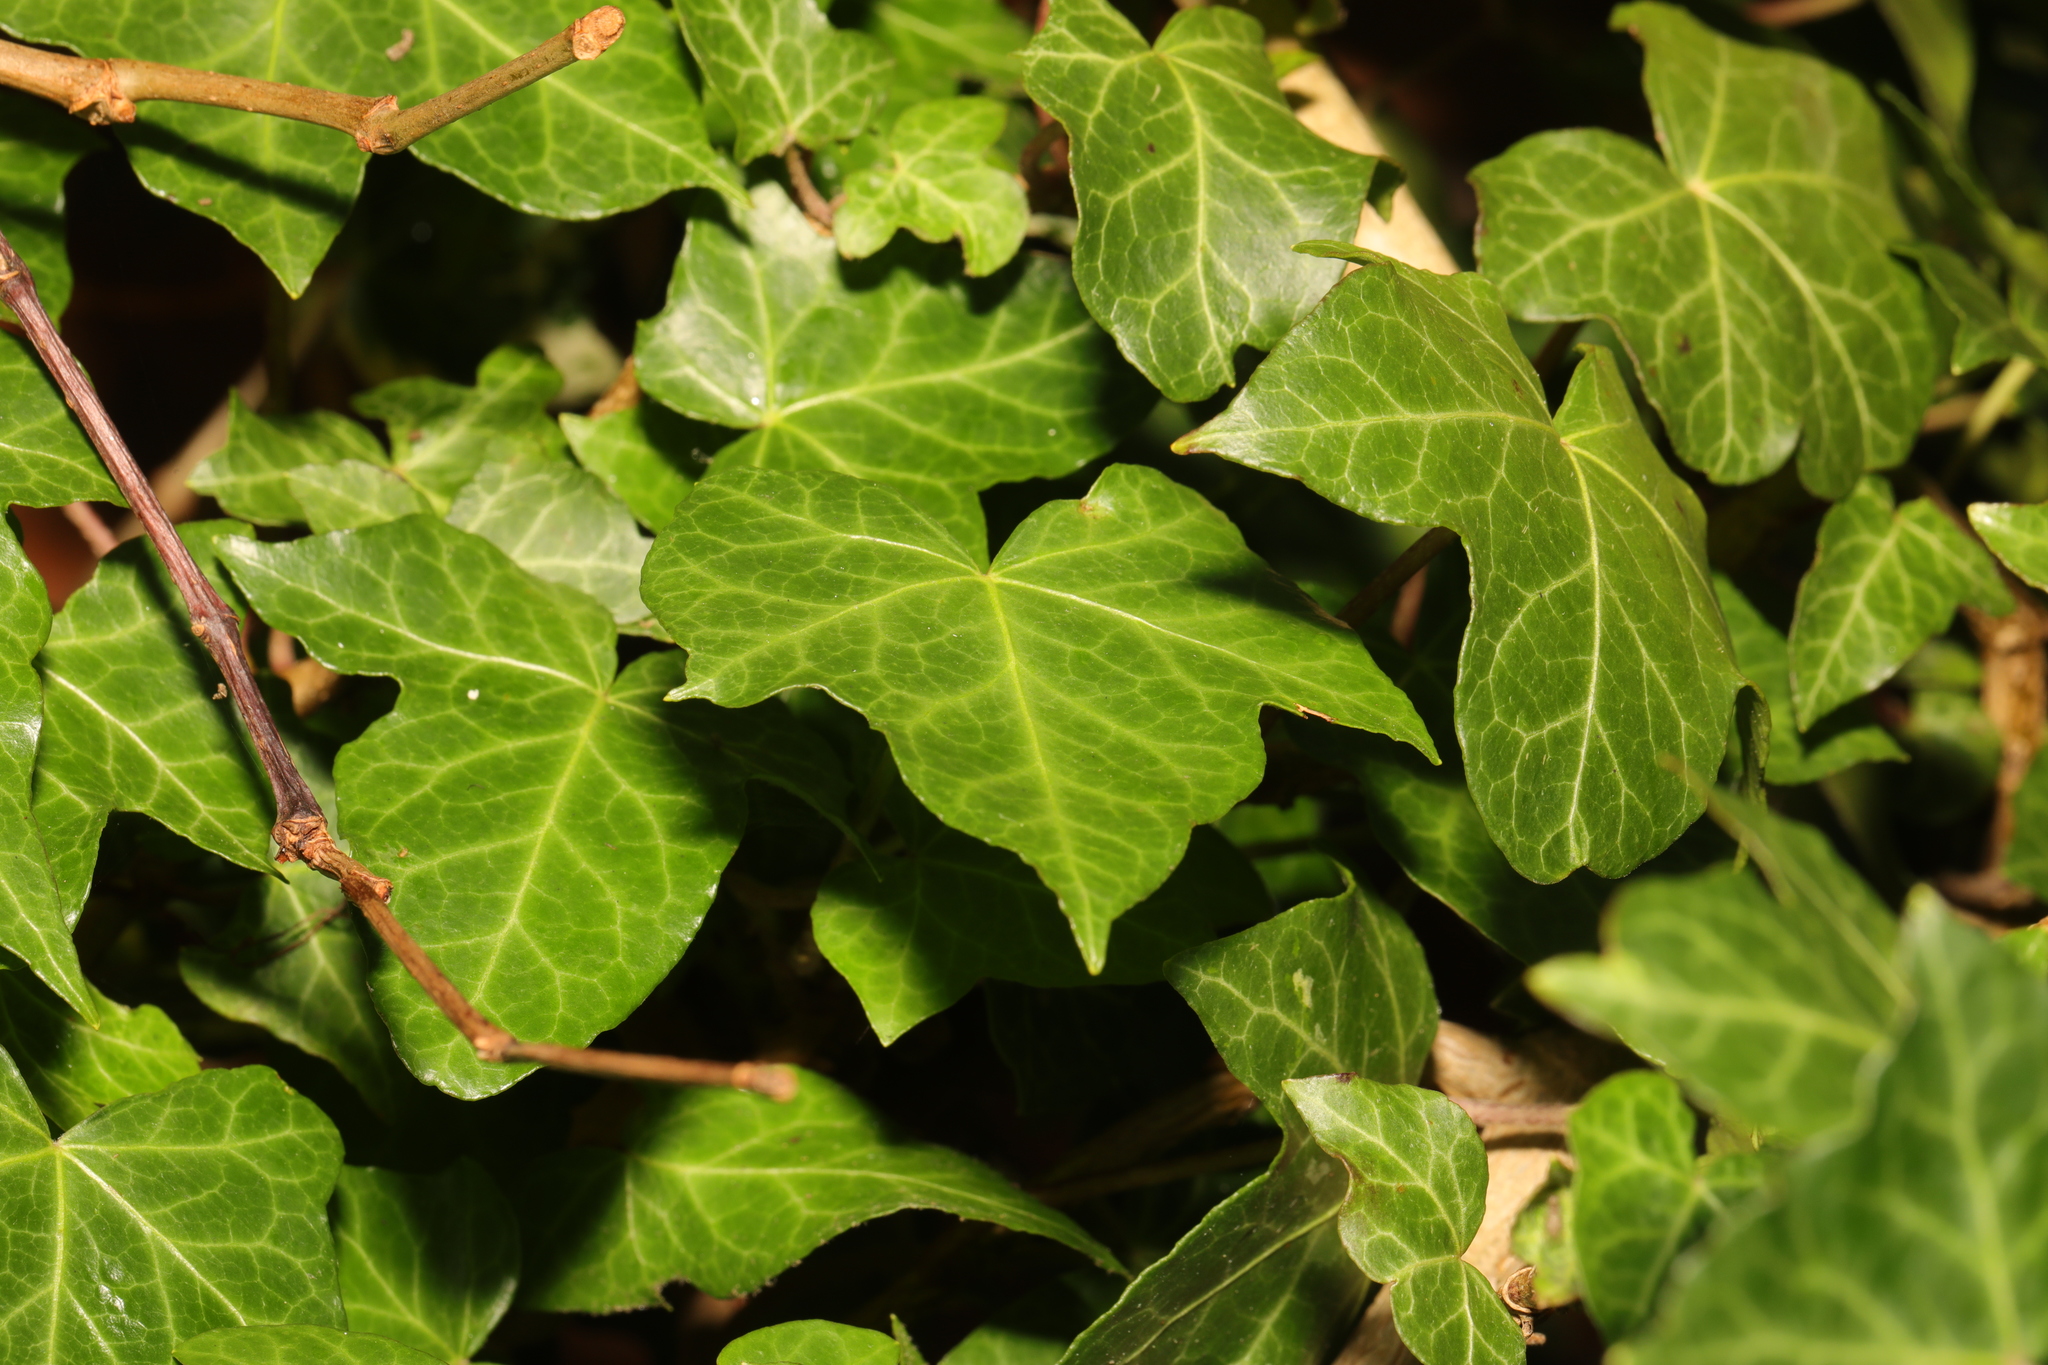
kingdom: Plantae
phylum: Tracheophyta
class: Magnoliopsida
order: Apiales
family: Araliaceae
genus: Hedera
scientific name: Hedera helix
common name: Ivy
